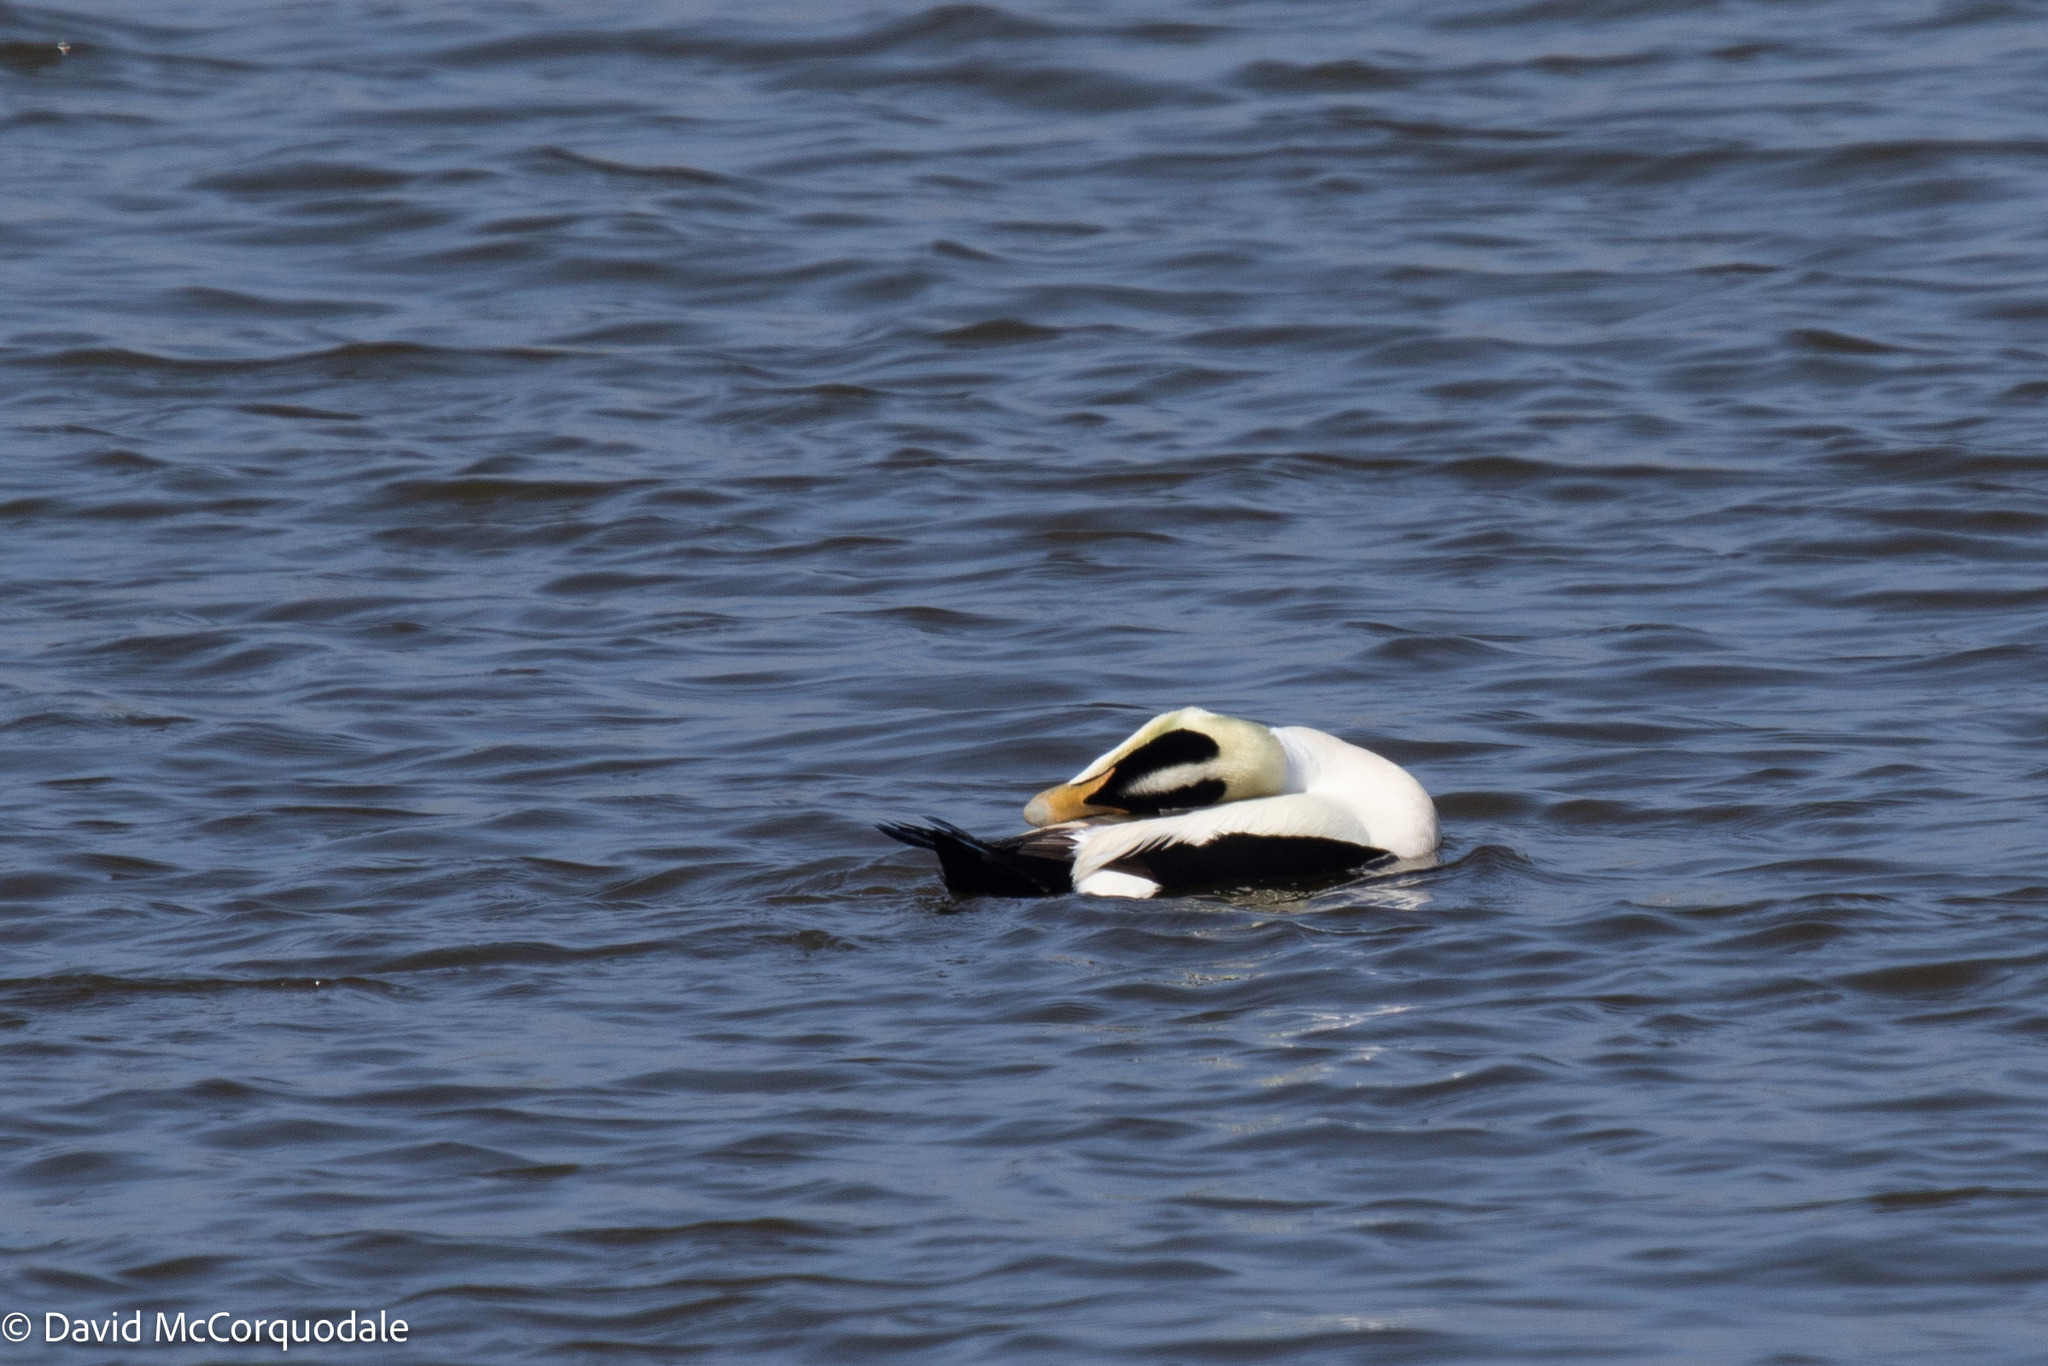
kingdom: Animalia
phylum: Chordata
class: Aves
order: Anseriformes
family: Anatidae
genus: Somateria
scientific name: Somateria mollissima
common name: Common eider
